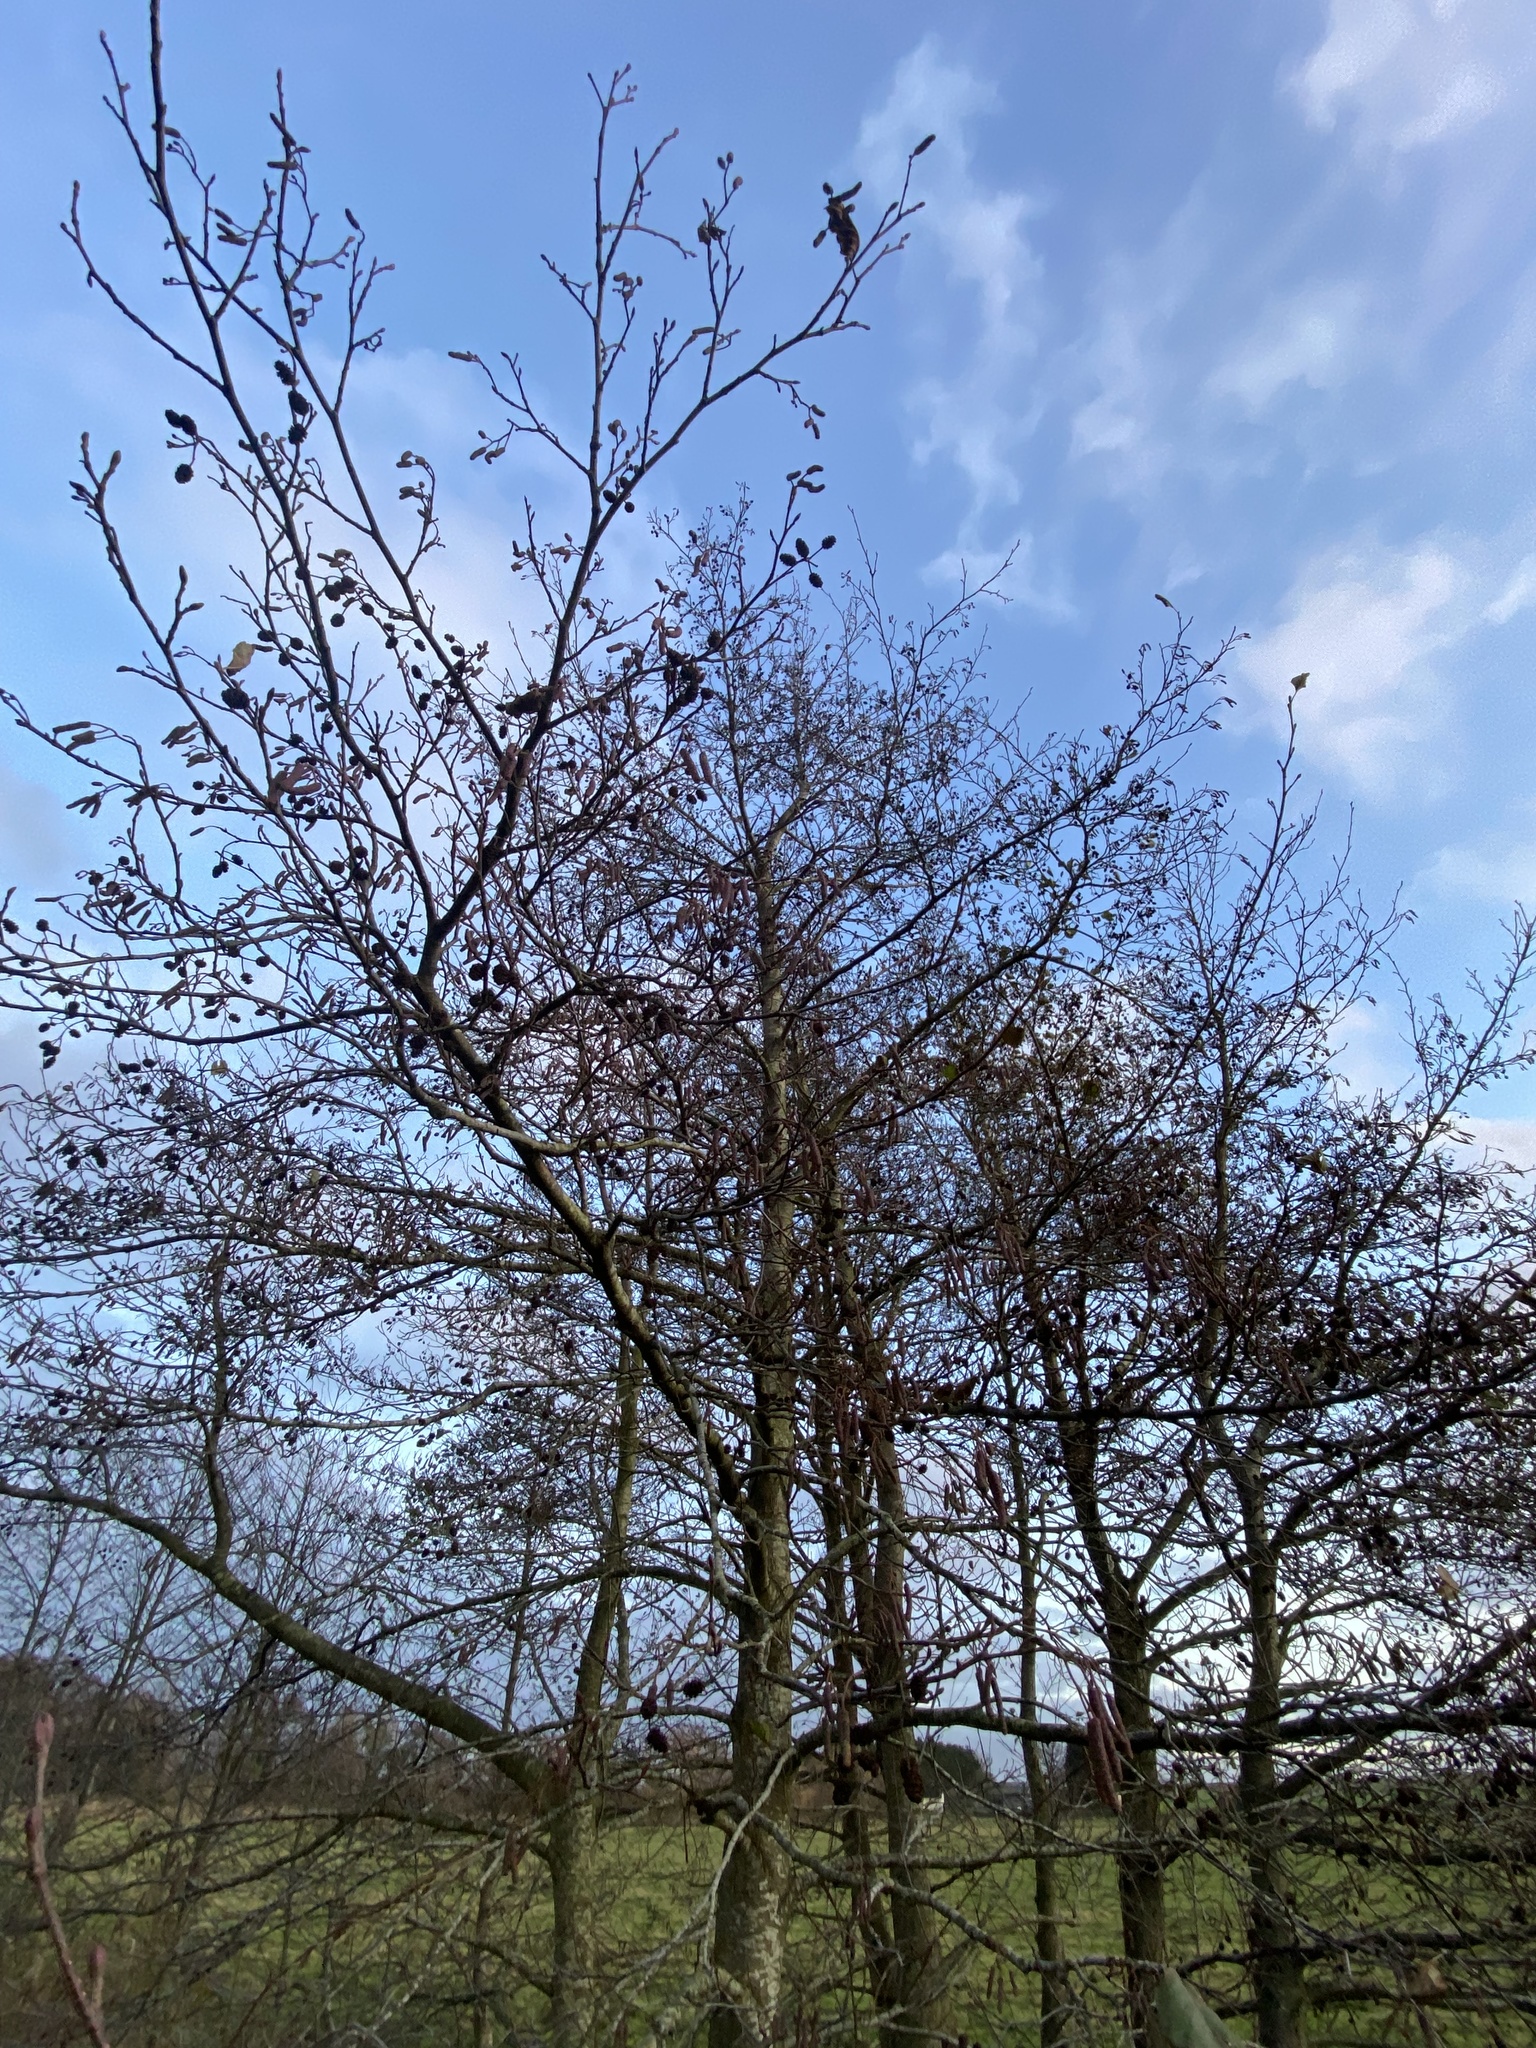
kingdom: Plantae
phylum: Tracheophyta
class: Magnoliopsida
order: Fagales
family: Betulaceae
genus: Alnus
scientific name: Alnus glutinosa
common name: Black alder
